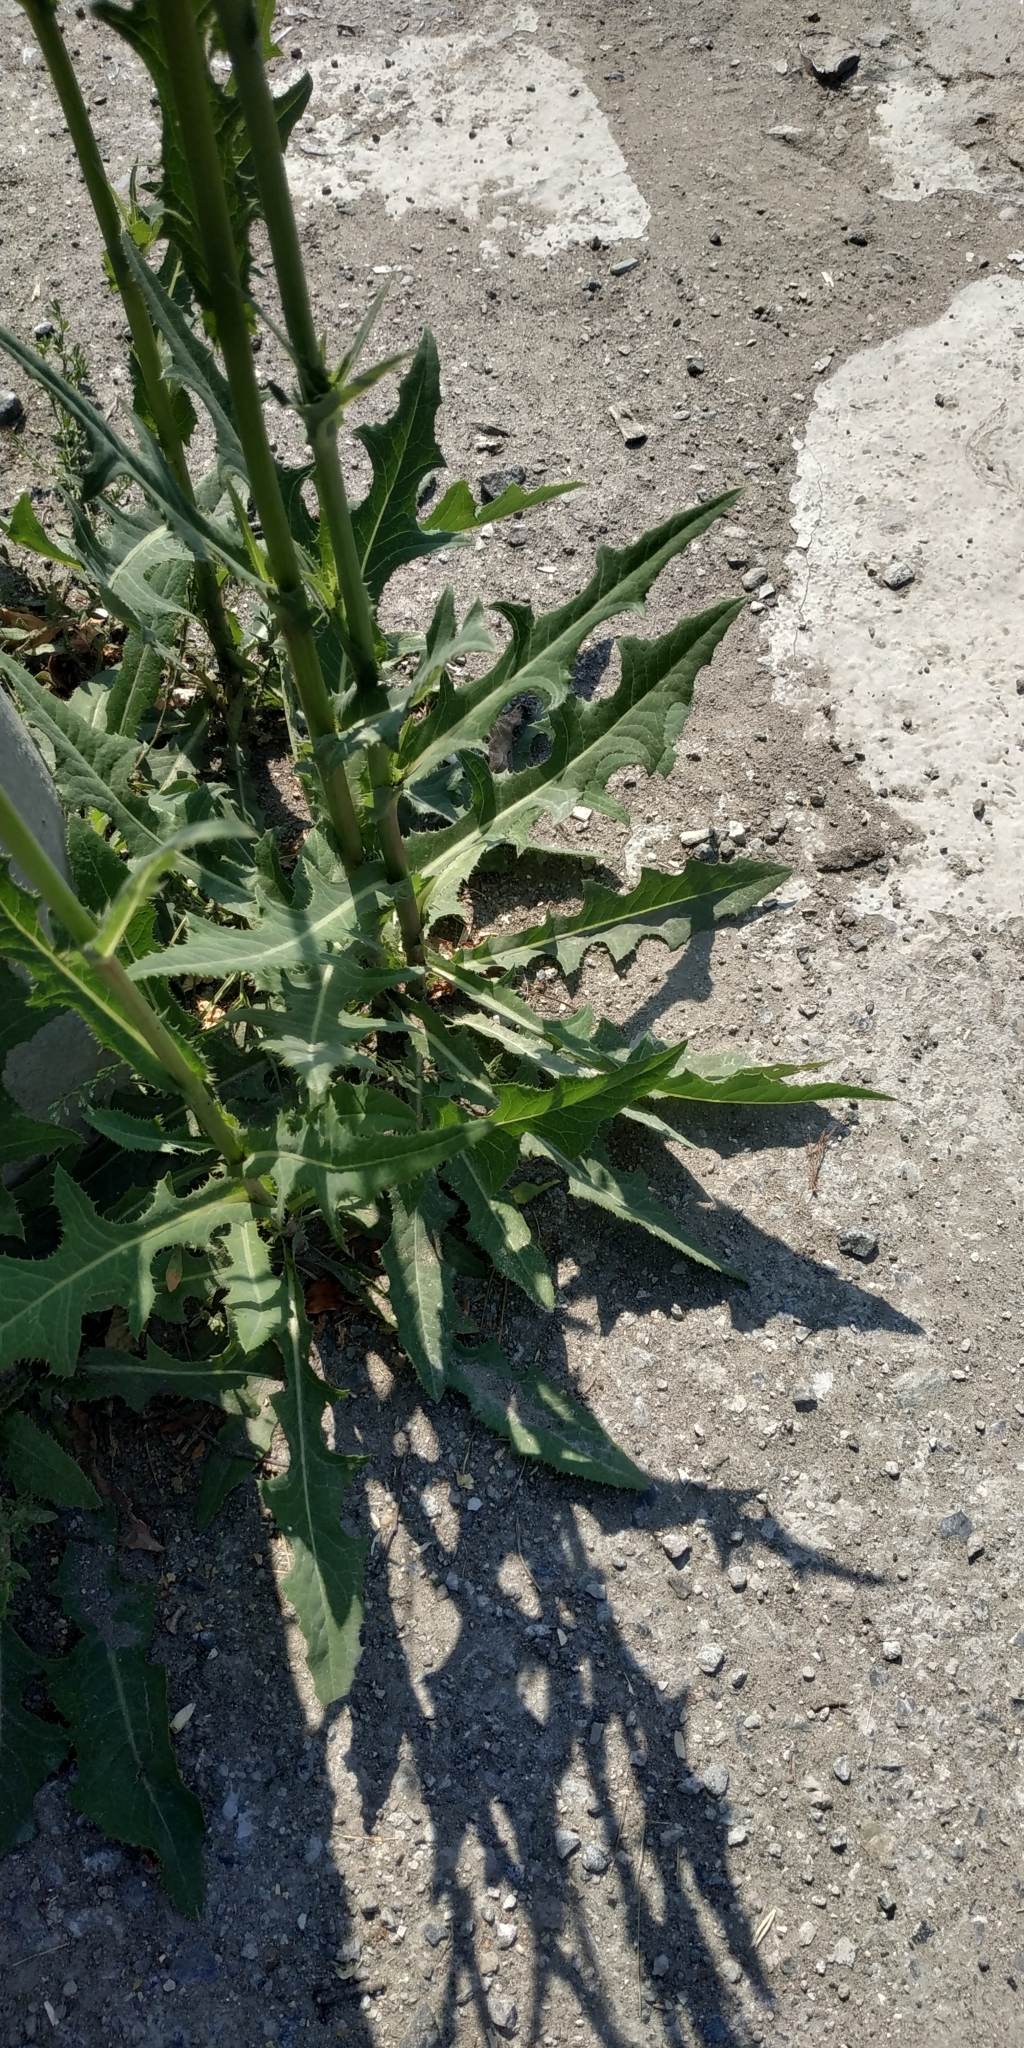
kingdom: Plantae
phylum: Tracheophyta
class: Magnoliopsida
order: Asterales
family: Asteraceae
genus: Sonchus
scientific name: Sonchus arvensis
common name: Perennial sow-thistle
